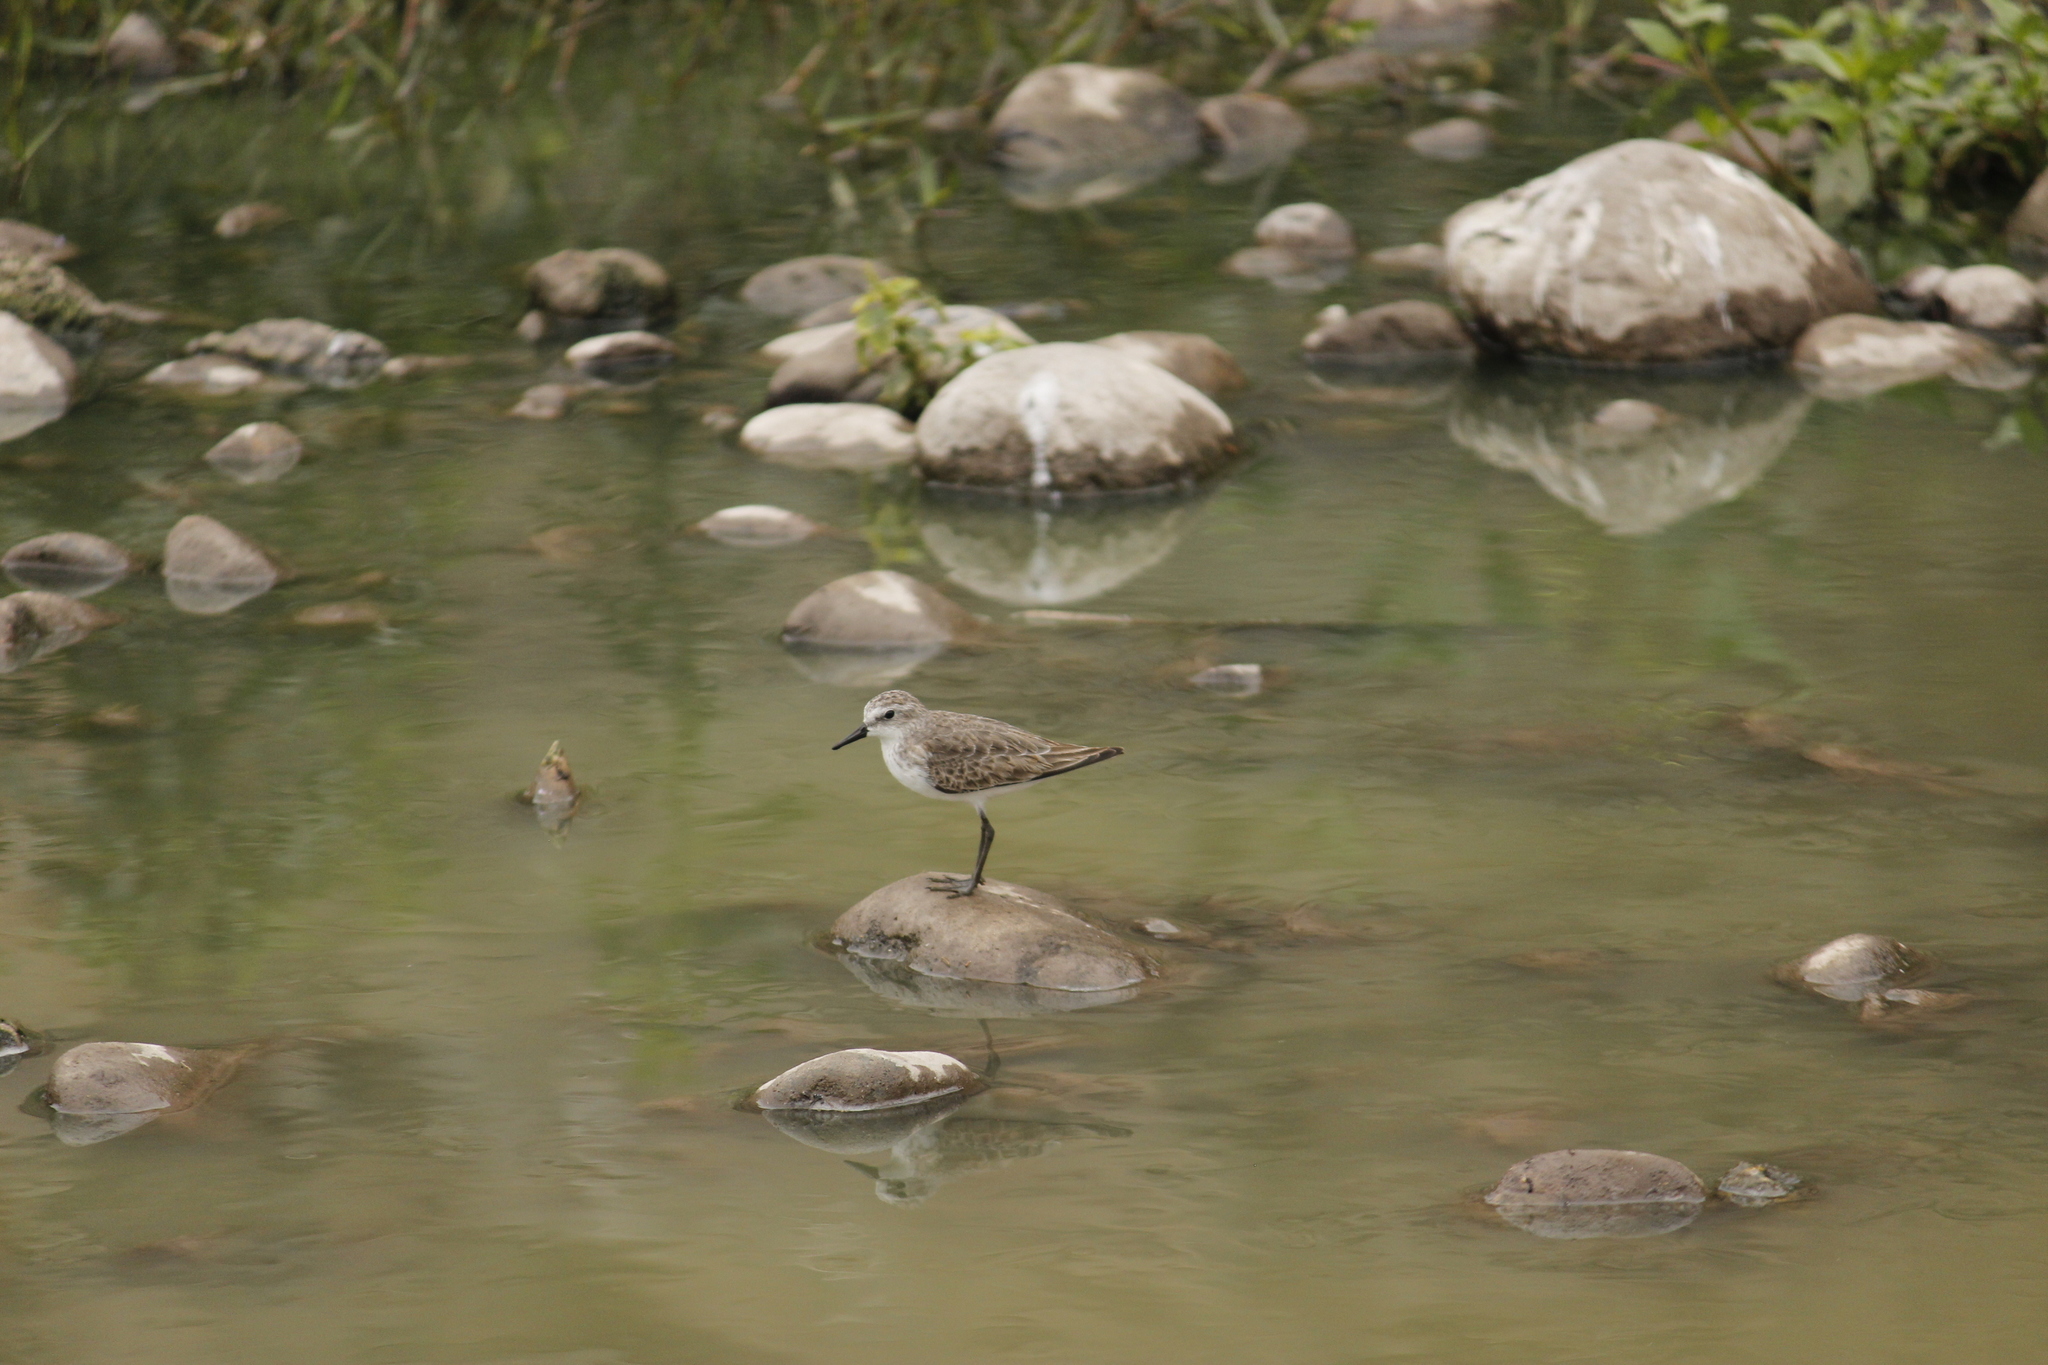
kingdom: Animalia
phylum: Chordata
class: Aves
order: Charadriiformes
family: Scolopacidae
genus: Calidris
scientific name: Calidris pusilla
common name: Semipalmated sandpiper
